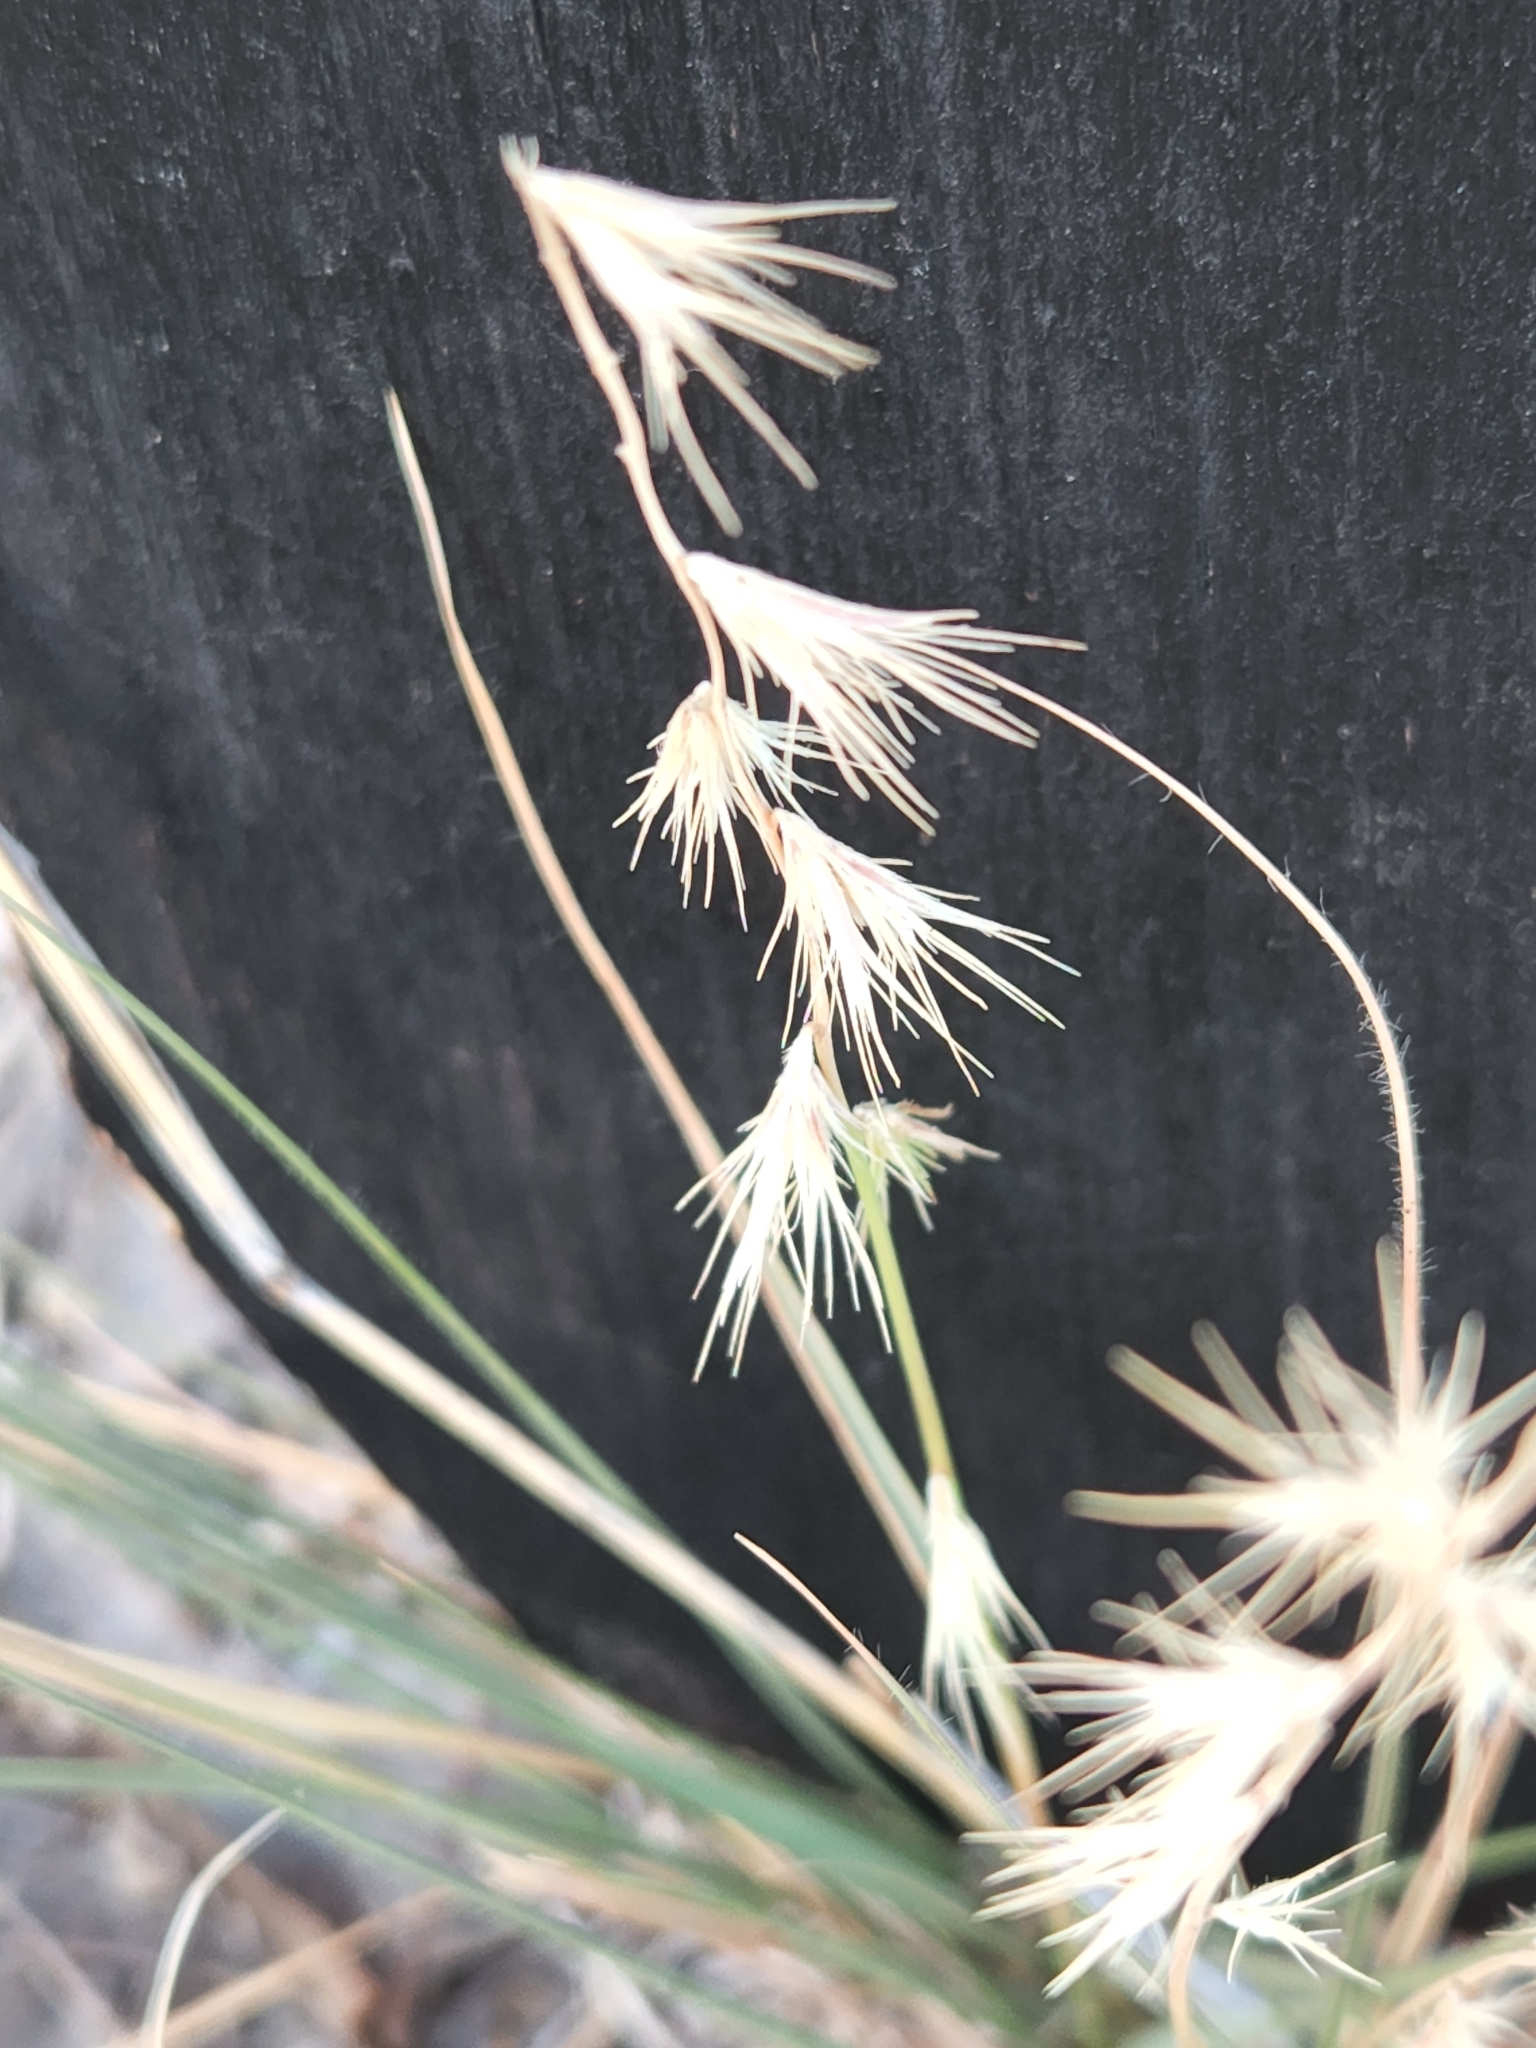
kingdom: Plantae
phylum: Tracheophyta
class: Liliopsida
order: Poales
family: Poaceae
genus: Bouteloua
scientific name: Bouteloua rigidiseta
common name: Texas grama
